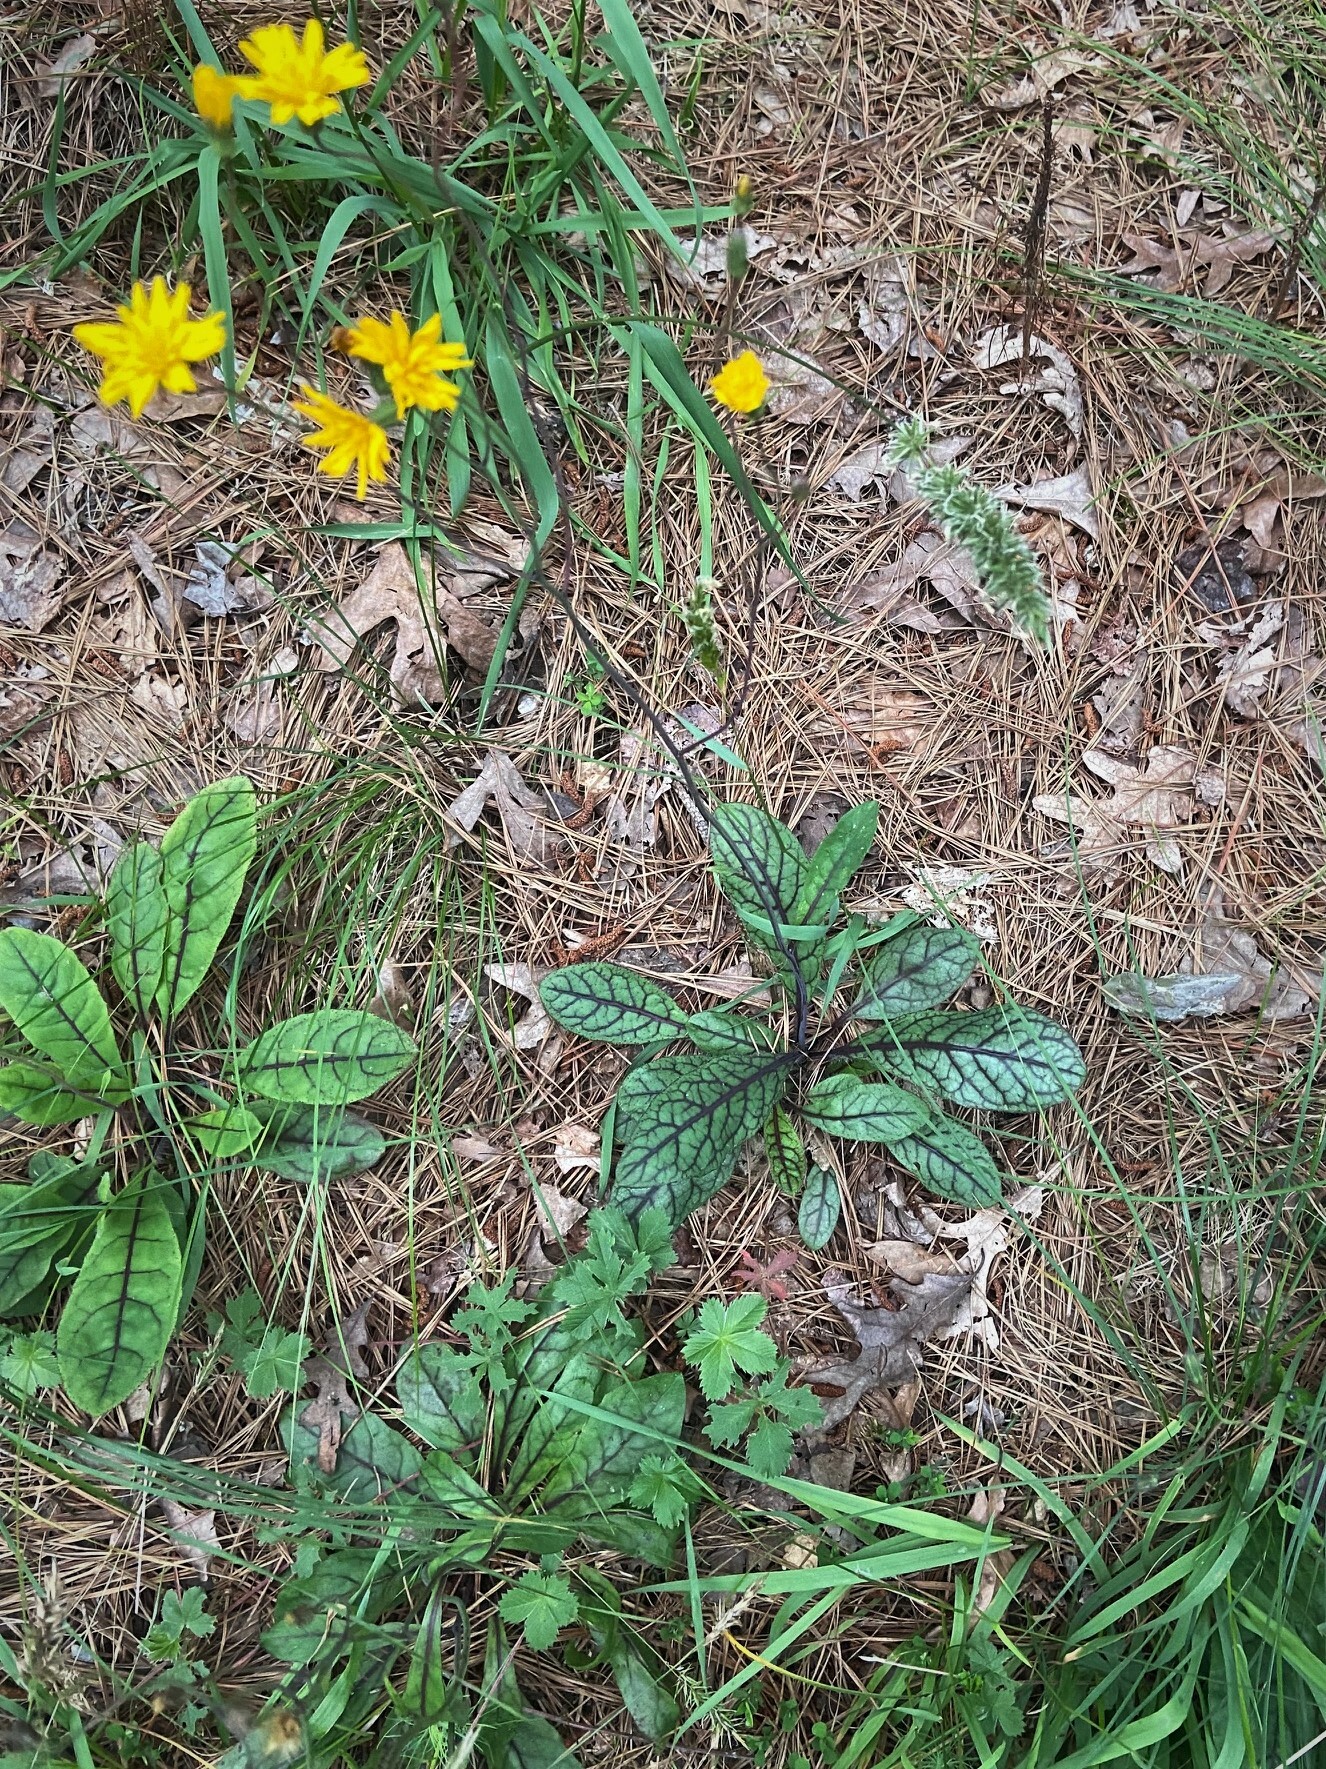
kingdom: Plantae
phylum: Tracheophyta
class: Magnoliopsida
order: Asterales
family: Asteraceae
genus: Hieracium
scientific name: Hieracium venosum
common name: Rattlesnake hawkweed
